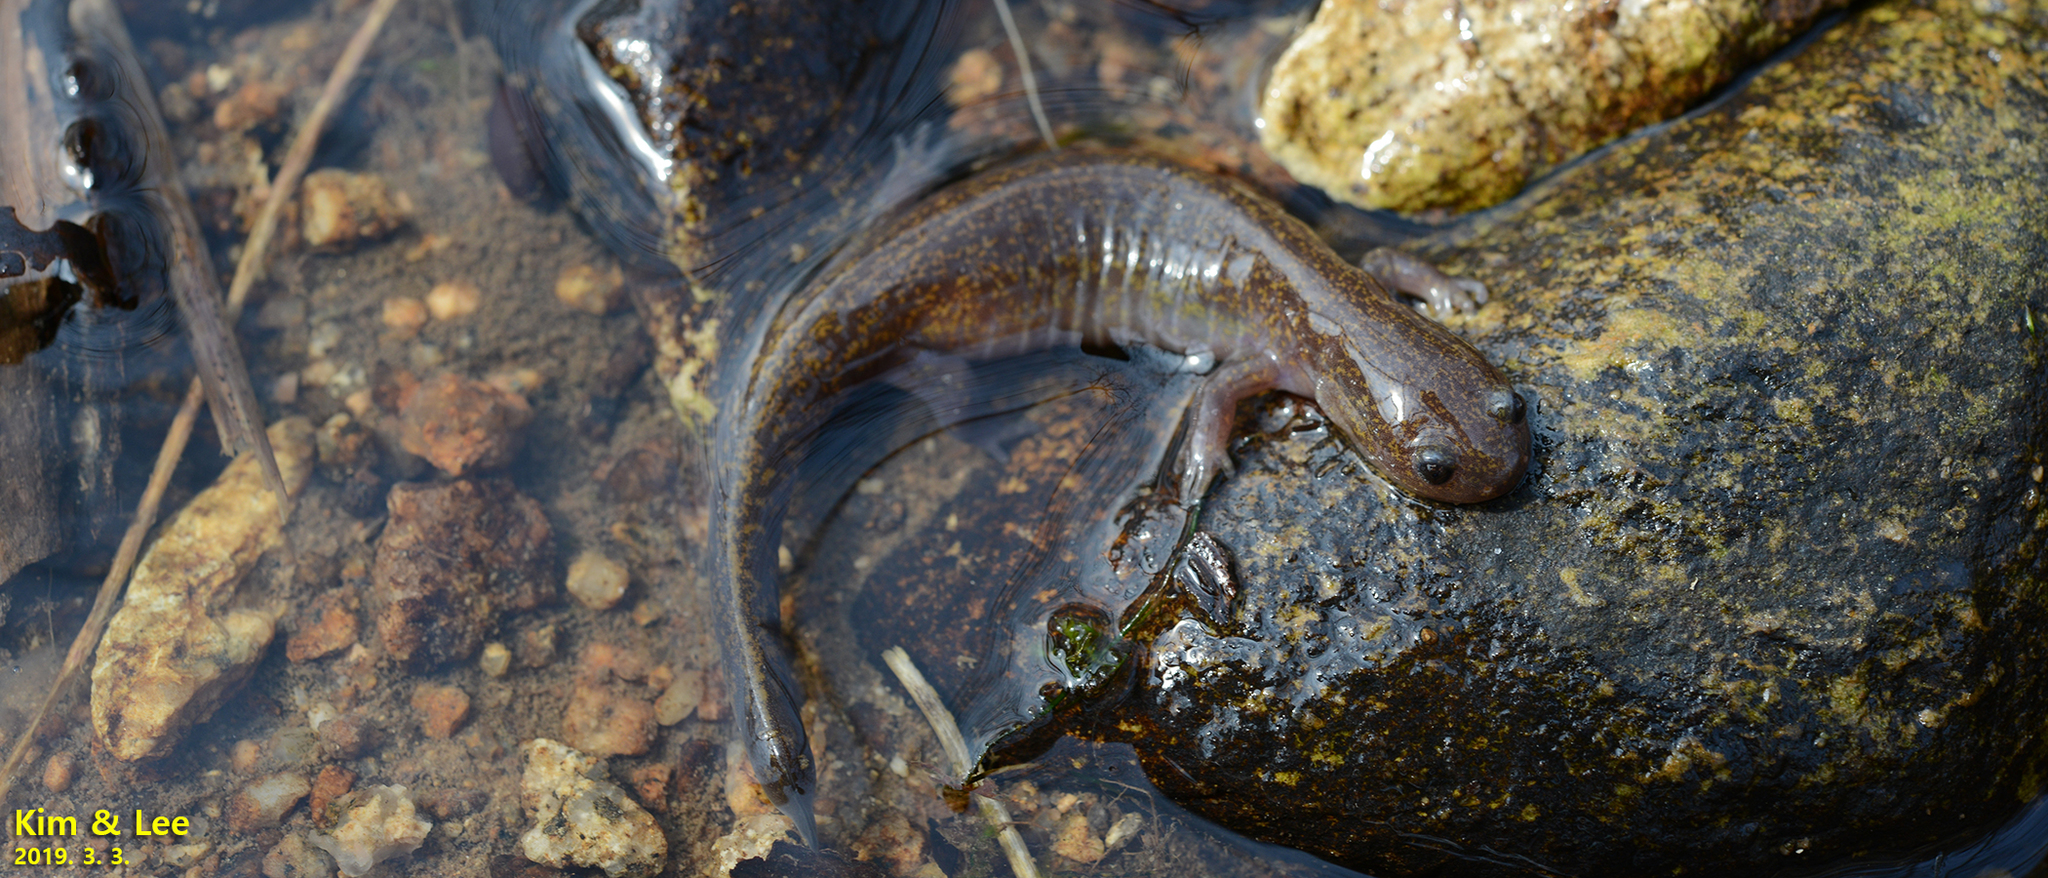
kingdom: Animalia
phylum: Chordata
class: Amphibia
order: Caudata
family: Hynobiidae
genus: Hynobius
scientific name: Hynobius notialis
